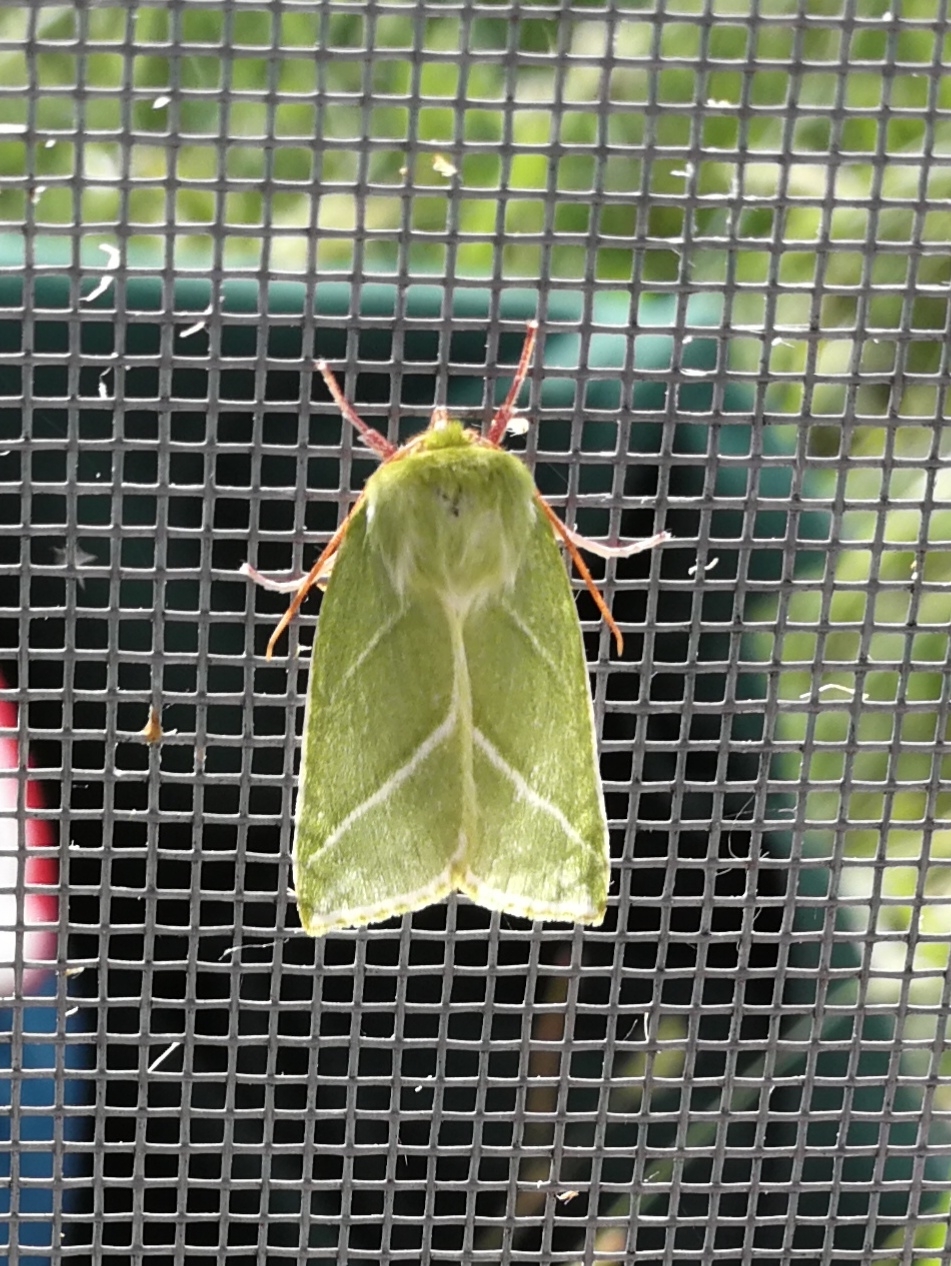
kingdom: Animalia
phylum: Arthropoda
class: Insecta
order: Lepidoptera
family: Nolidae
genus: Pseudoips
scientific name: Pseudoips prasinana
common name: Green silver-lines
